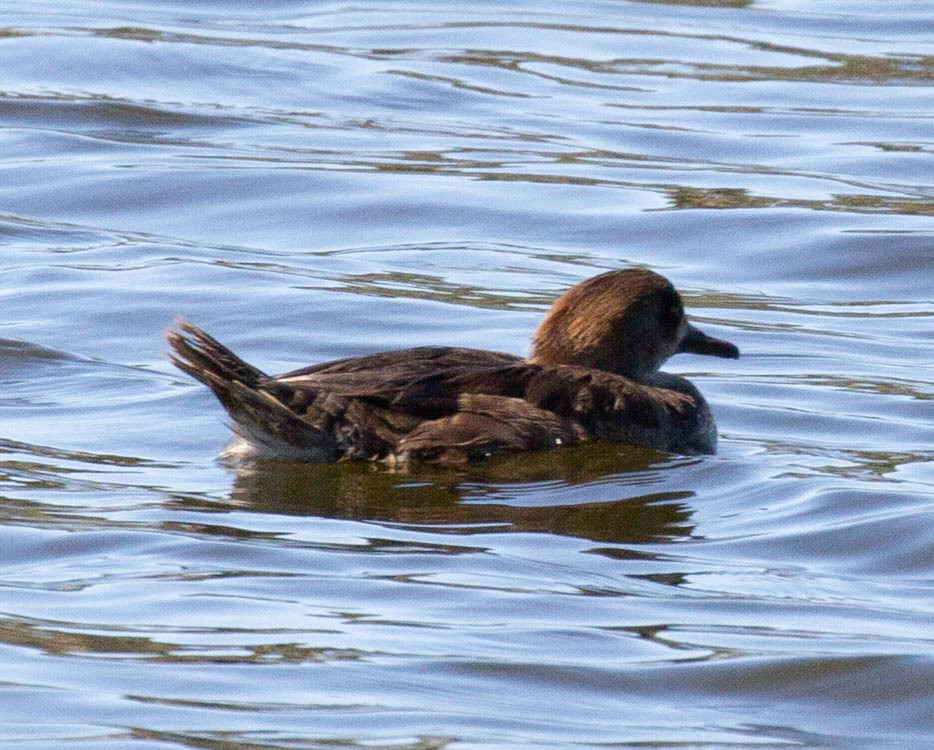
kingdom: Animalia
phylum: Chordata
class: Aves
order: Anseriformes
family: Anatidae
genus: Lophodytes
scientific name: Lophodytes cucullatus
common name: Hooded merganser
